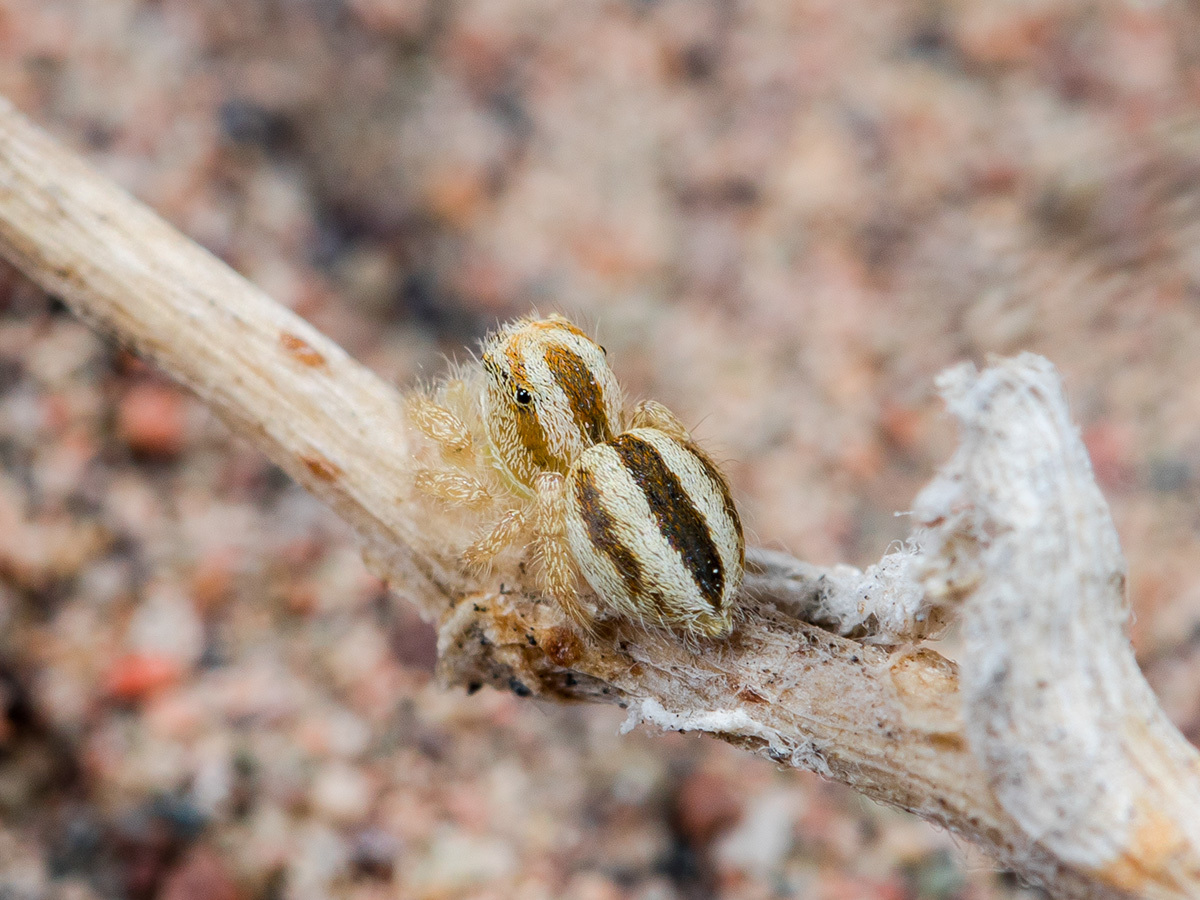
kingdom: Animalia
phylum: Arthropoda
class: Arachnida
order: Araneae
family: Salticidae
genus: Pseudomogrus
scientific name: Pseudomogrus zhilgaensis
